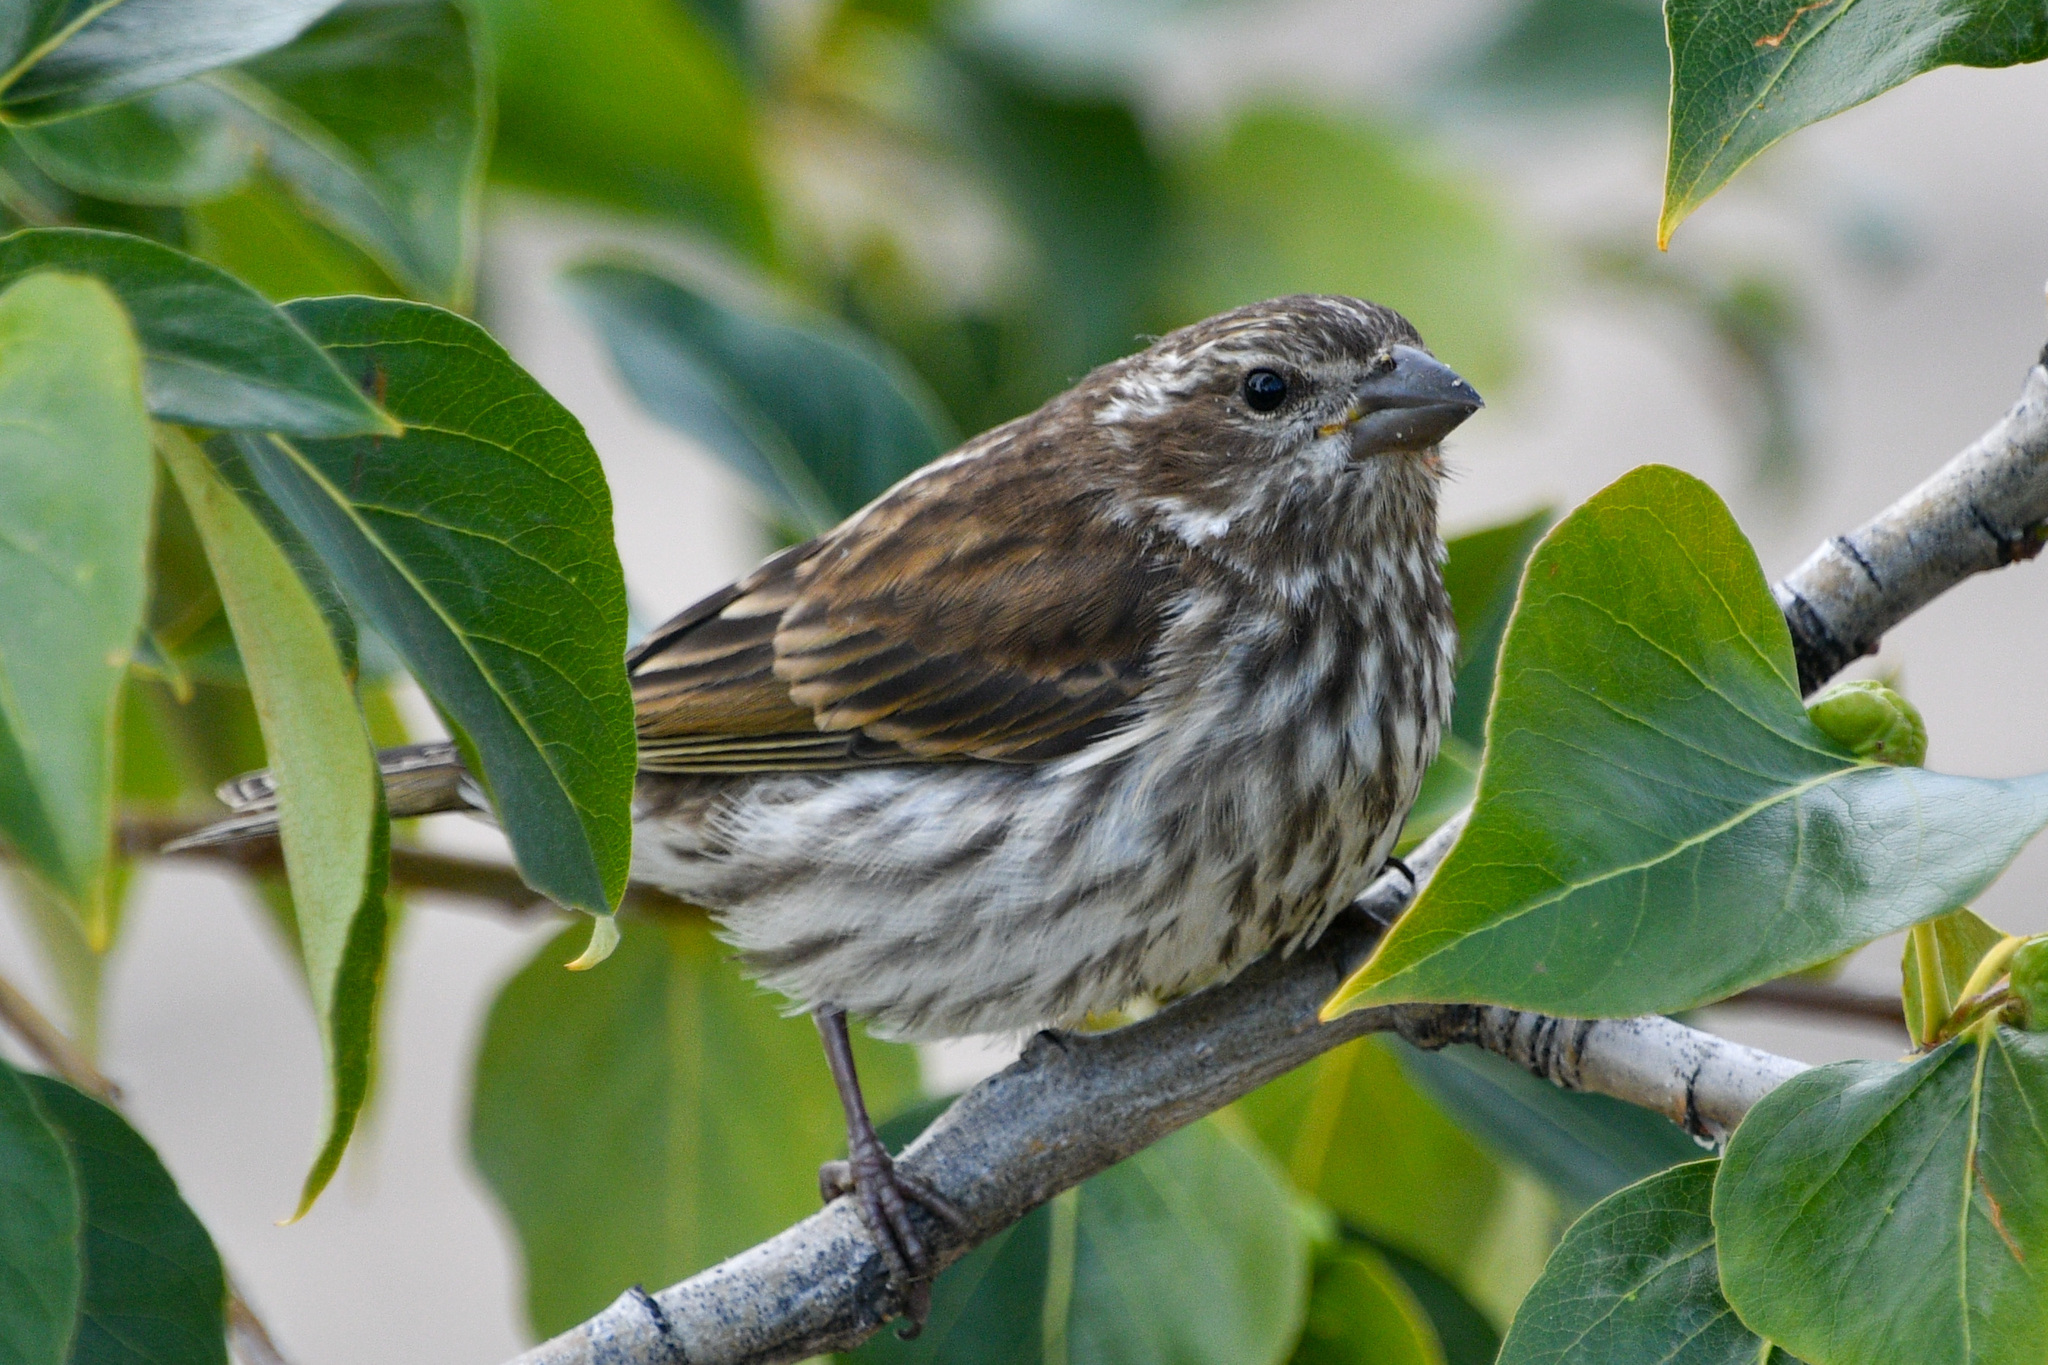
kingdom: Animalia
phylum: Chordata
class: Aves
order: Passeriformes
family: Fringillidae
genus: Haemorhous
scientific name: Haemorhous purpureus
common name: Purple finch
